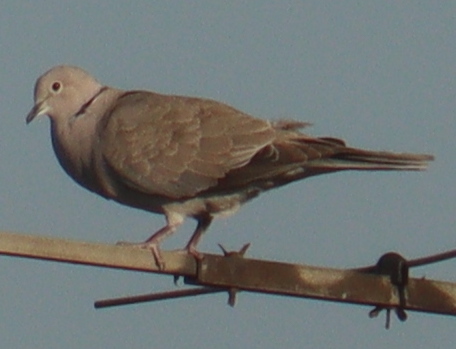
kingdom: Animalia
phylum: Chordata
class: Aves
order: Columbiformes
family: Columbidae
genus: Streptopelia
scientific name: Streptopelia decaocto
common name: Eurasian collared dove
